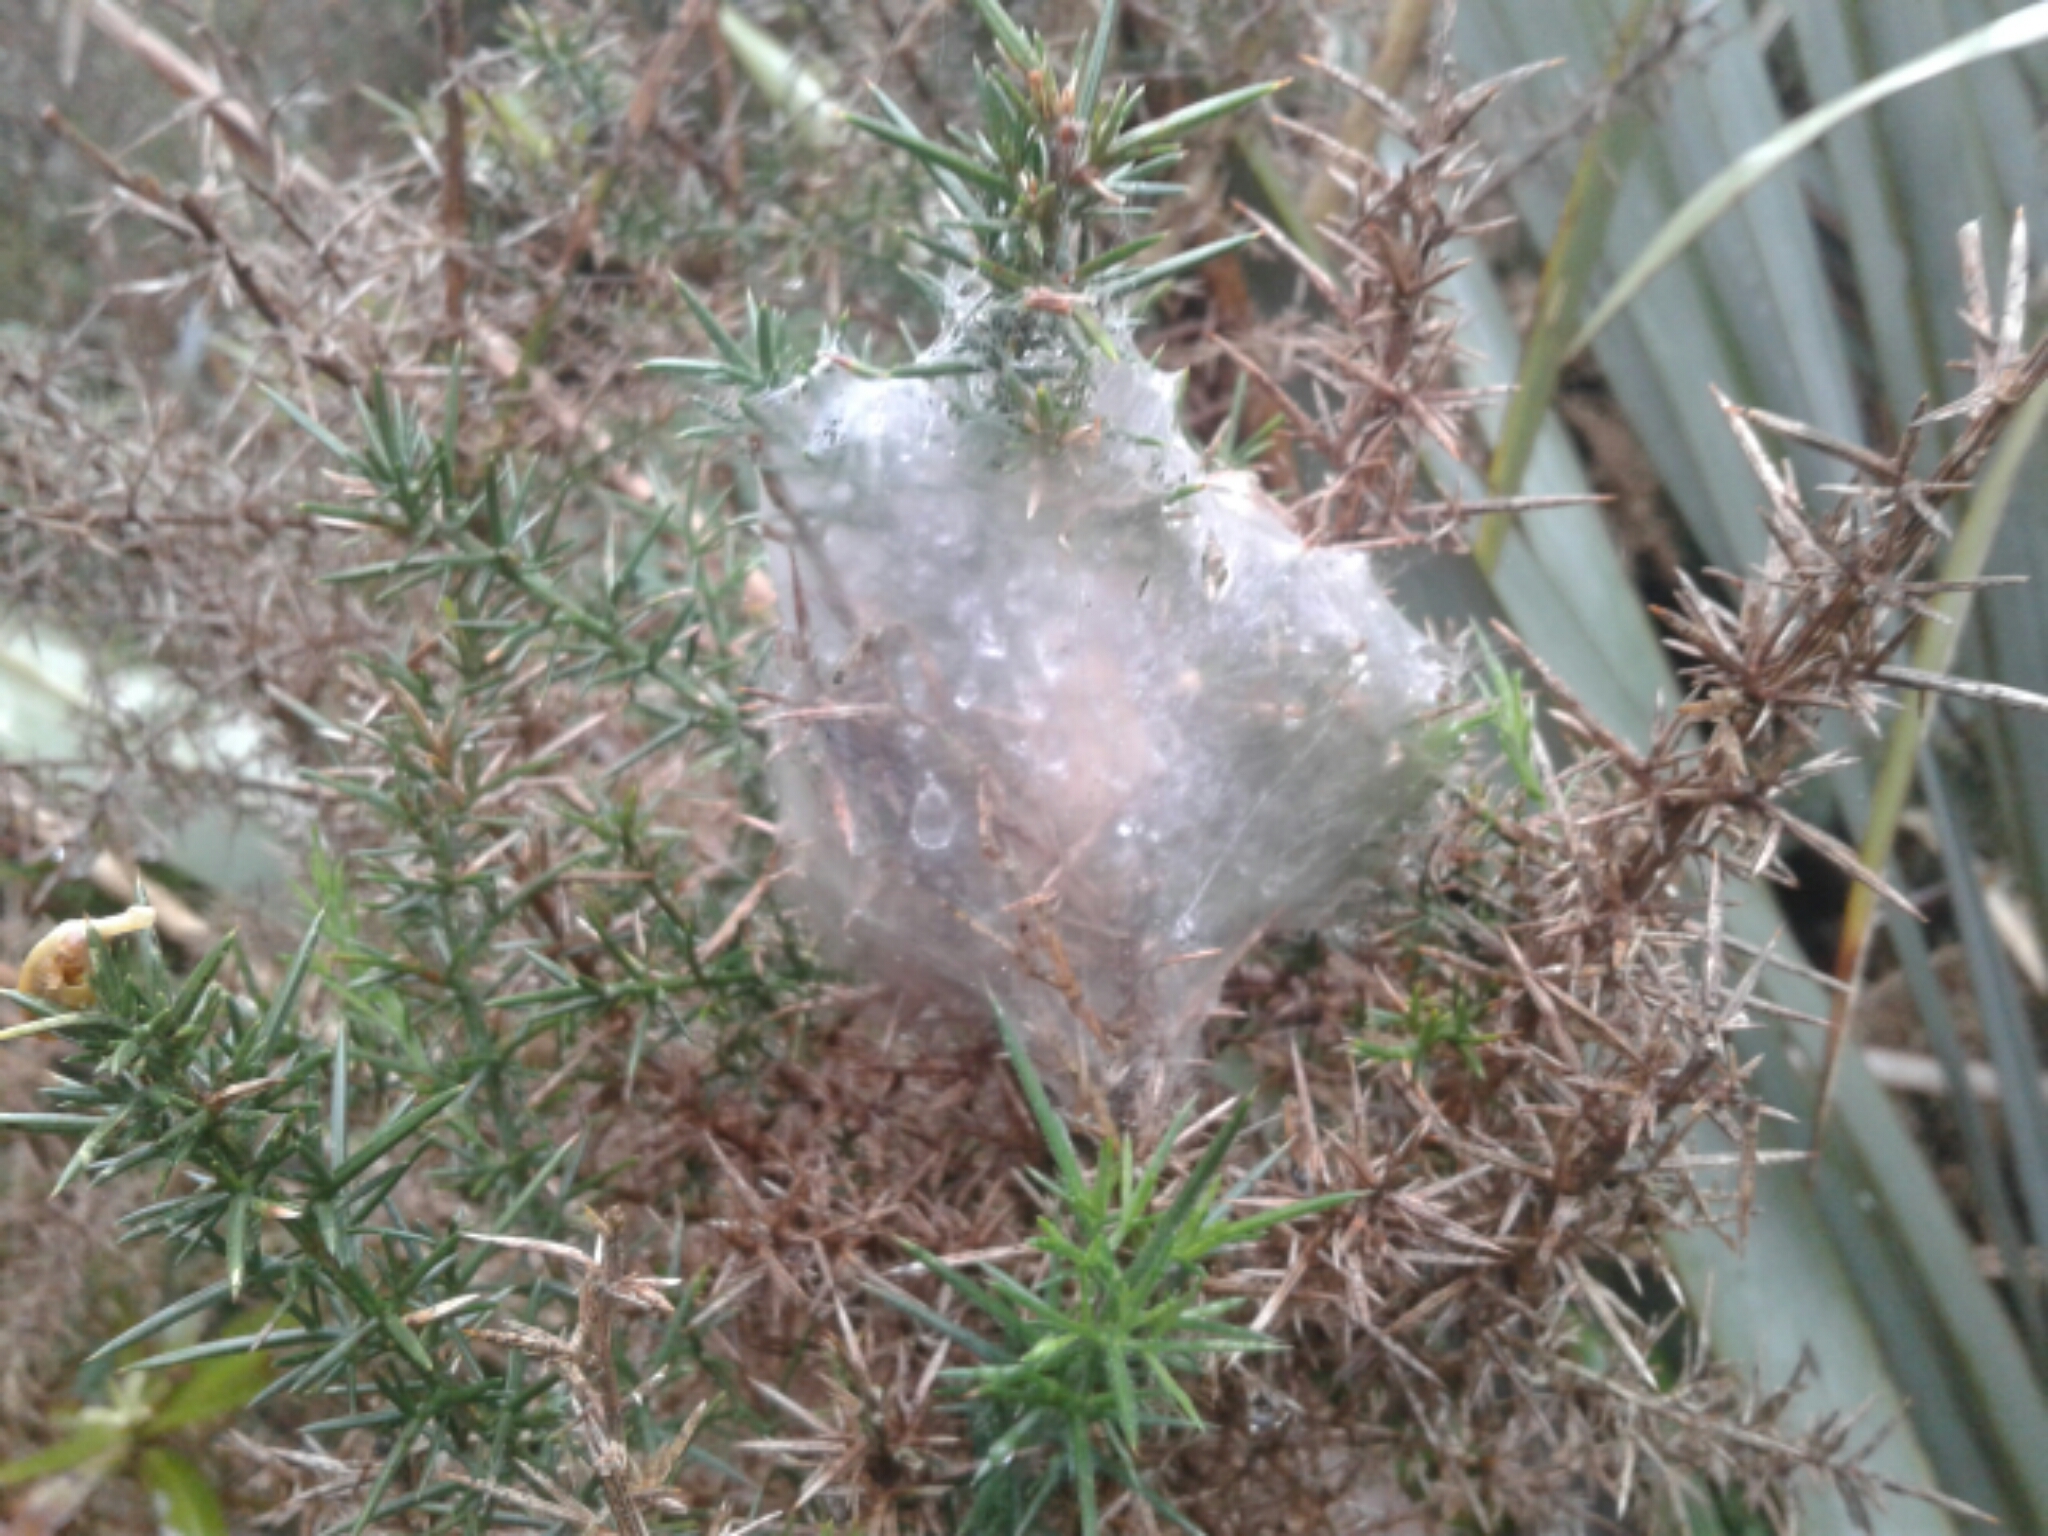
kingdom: Animalia
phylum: Arthropoda
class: Arachnida
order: Araneae
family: Pisauridae
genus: Dolomedes
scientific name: Dolomedes minor
